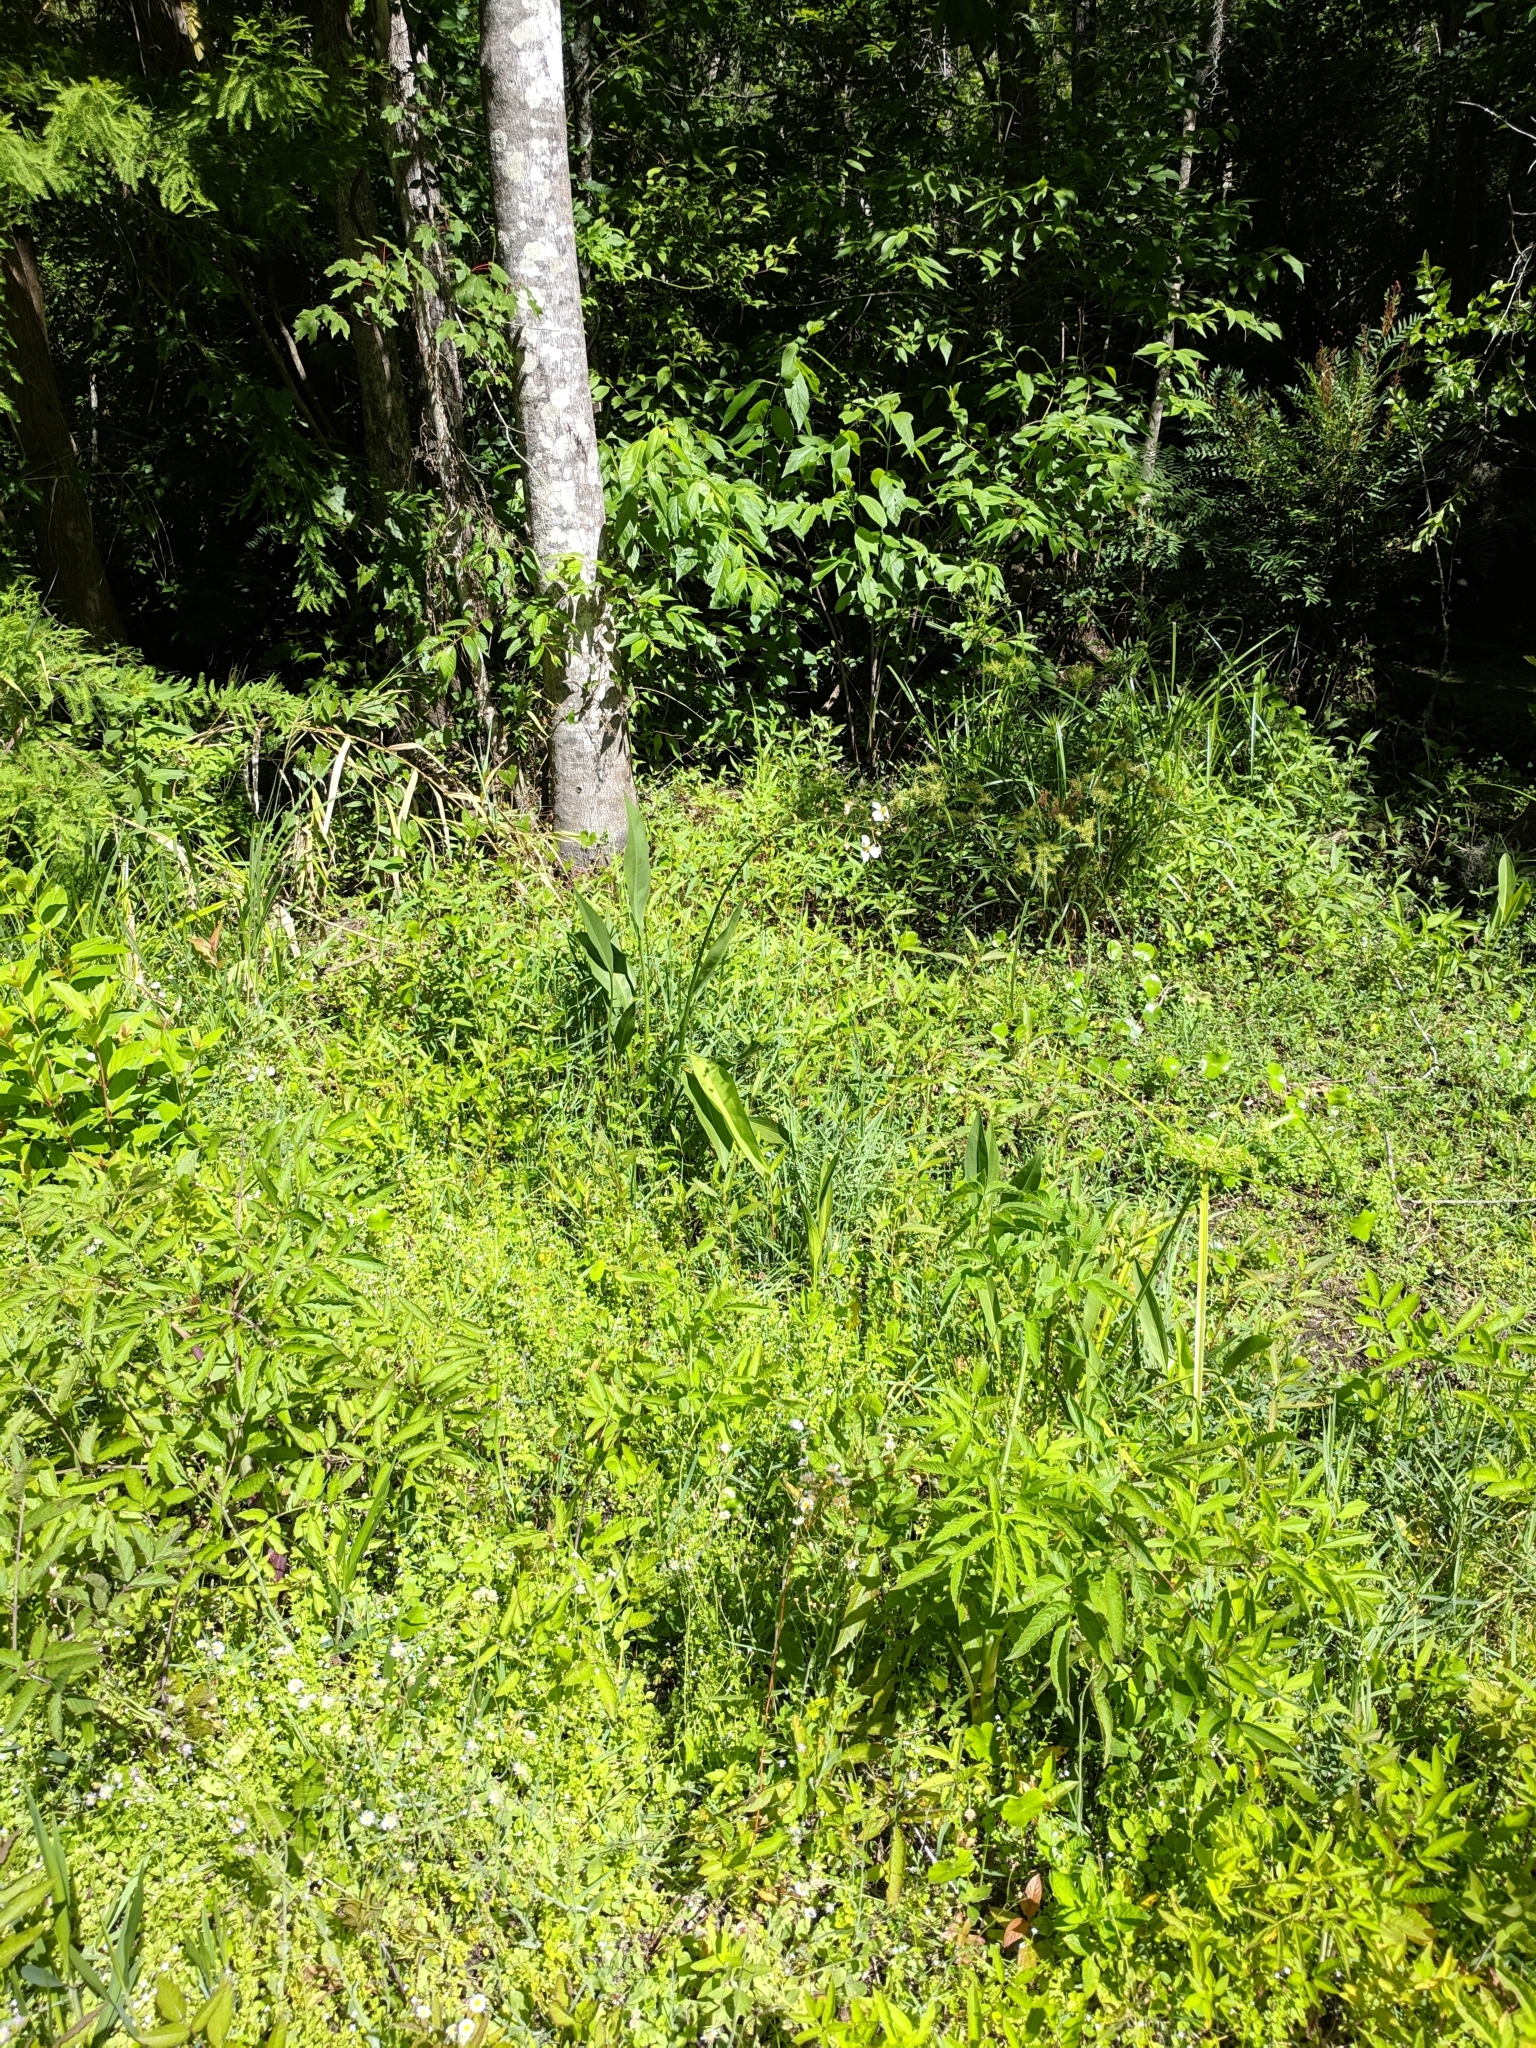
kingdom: Plantae
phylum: Tracheophyta
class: Liliopsida
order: Alismatales
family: Alismataceae
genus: Sagittaria
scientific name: Sagittaria lancifolia
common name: Lance-leaf arrowhead
